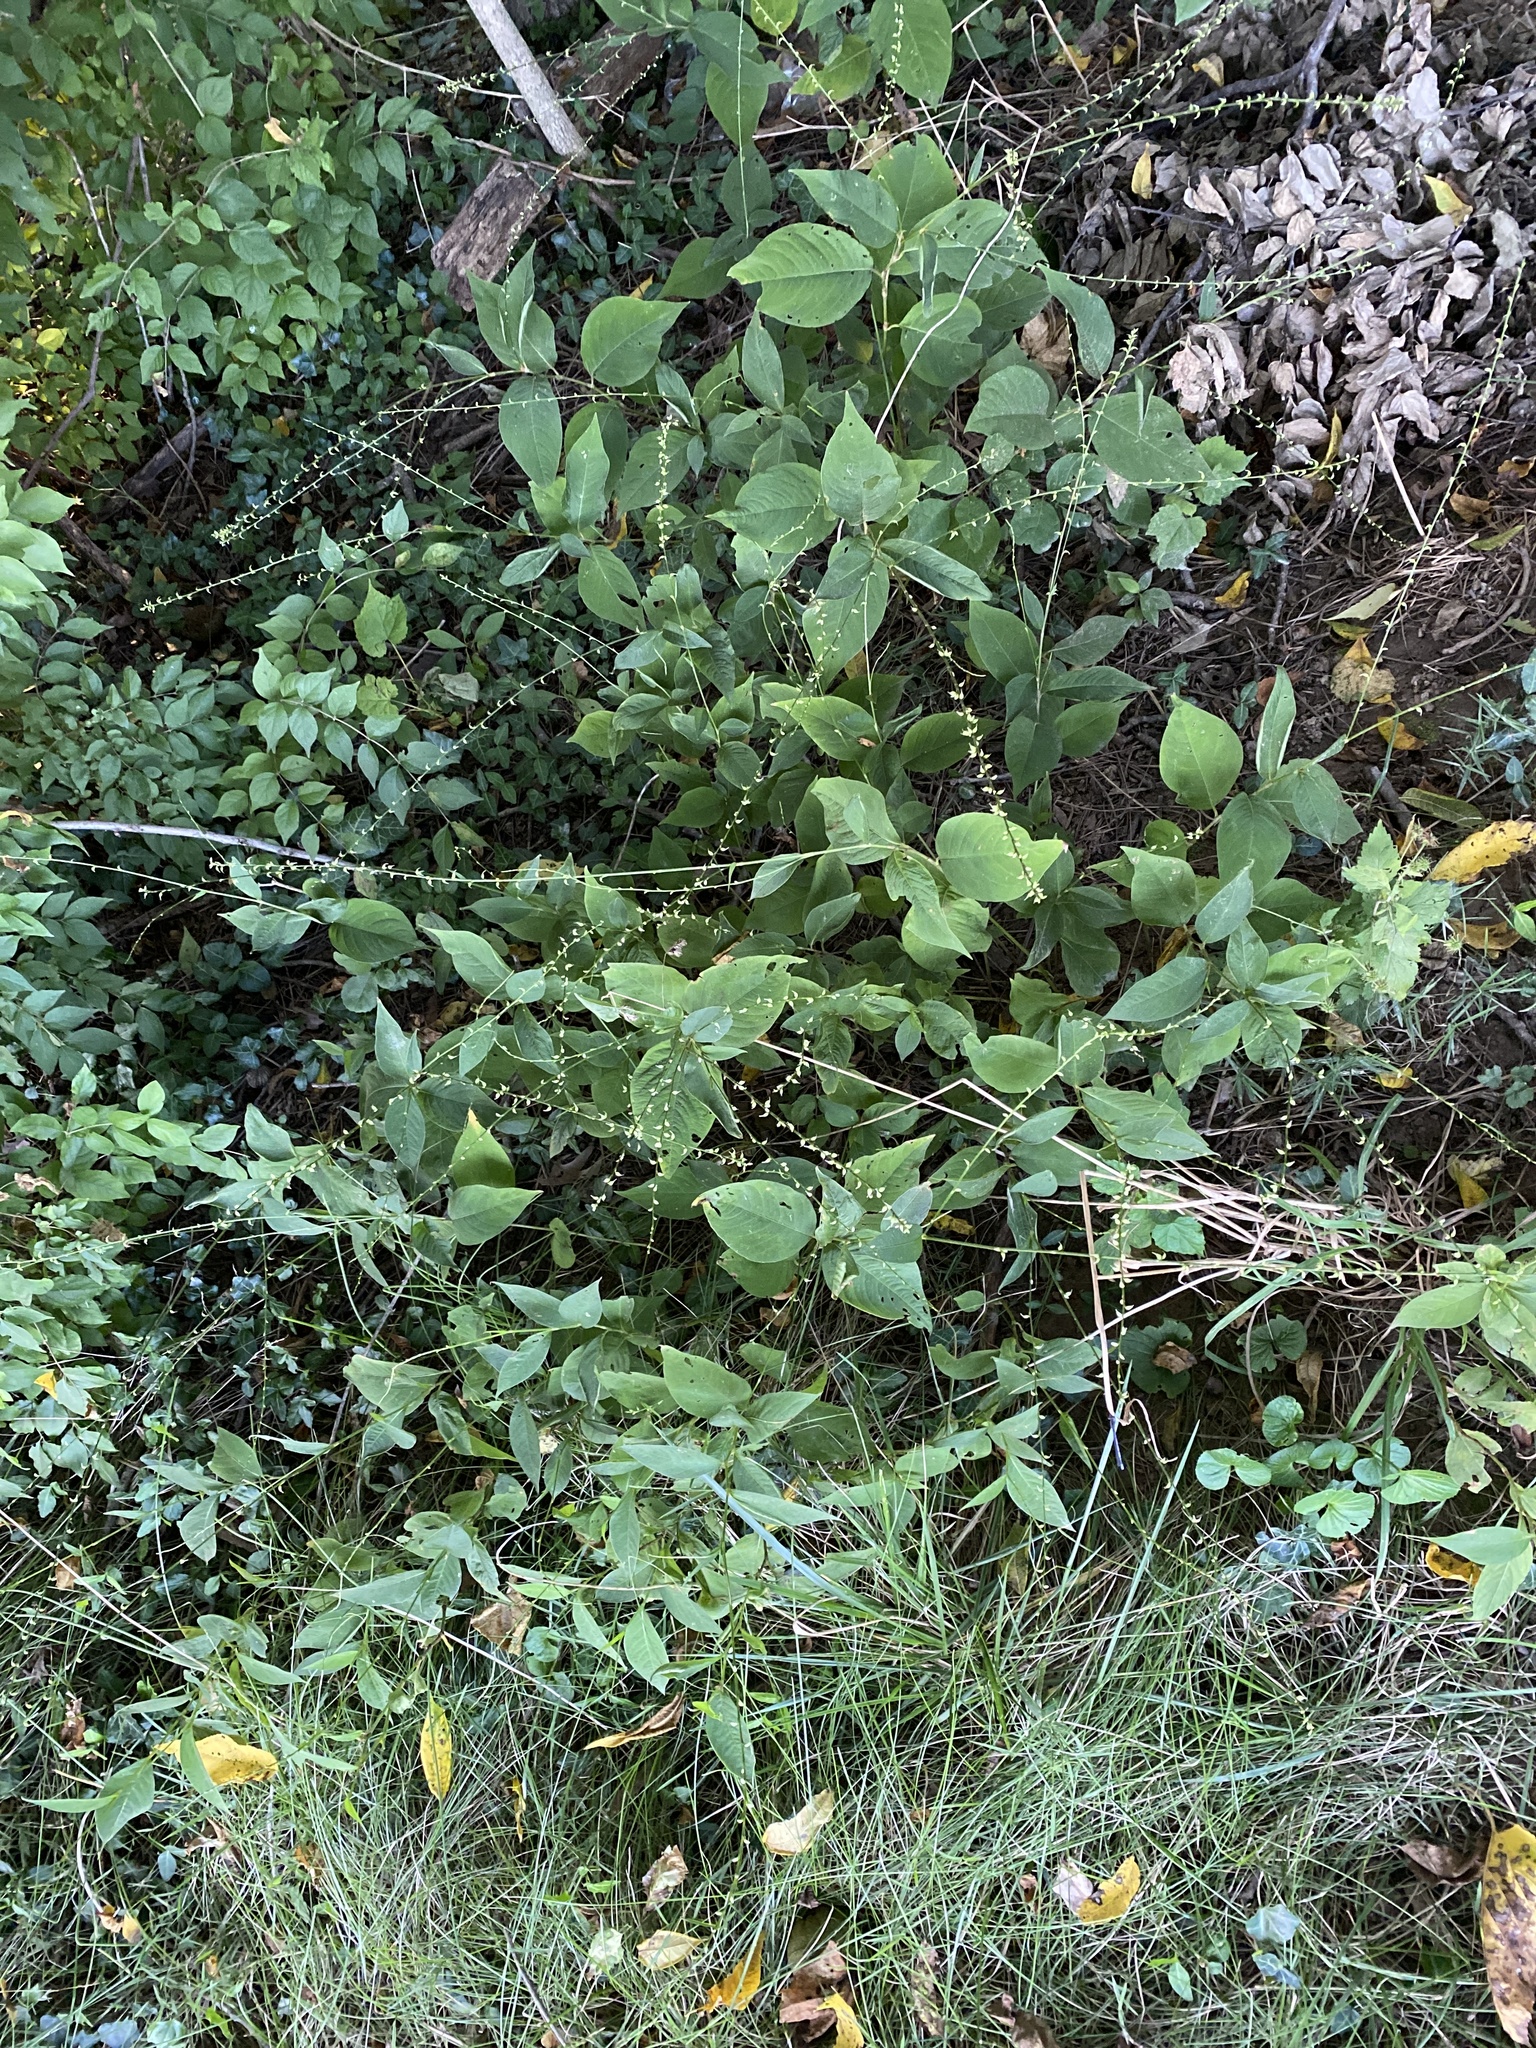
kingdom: Plantae
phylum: Tracheophyta
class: Magnoliopsida
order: Caryophyllales
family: Polygonaceae
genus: Persicaria
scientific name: Persicaria virginiana
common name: Jumpseed
